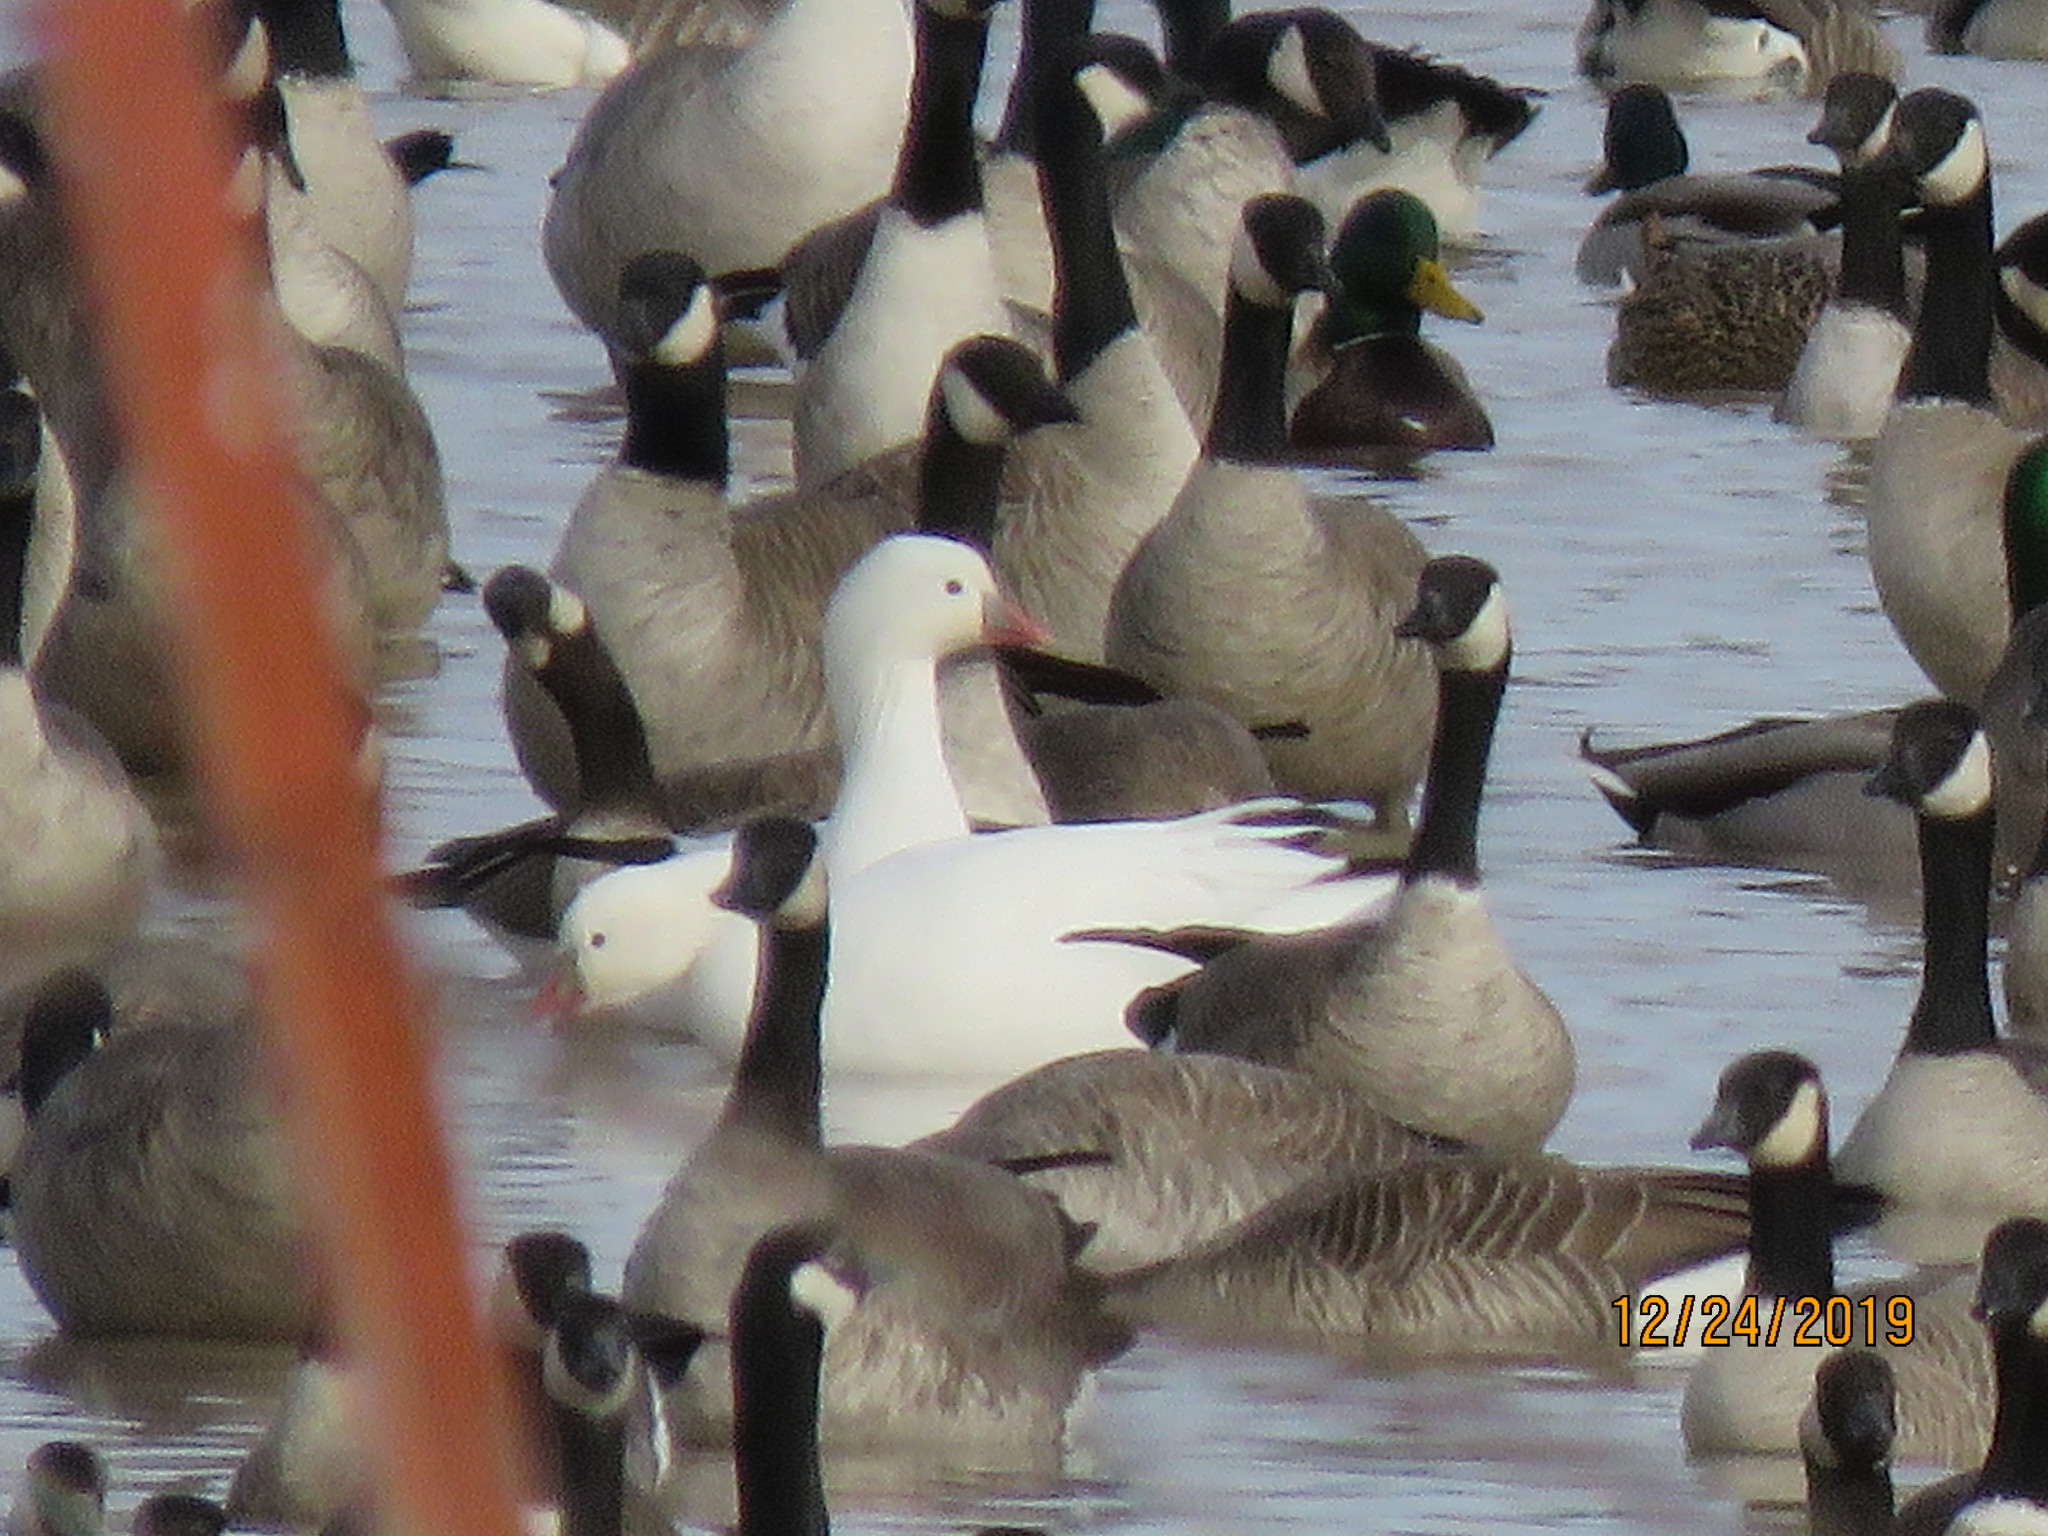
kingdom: Animalia
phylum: Chordata
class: Aves
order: Anseriformes
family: Anatidae
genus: Anser
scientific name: Anser rossii
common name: Ross's goose
